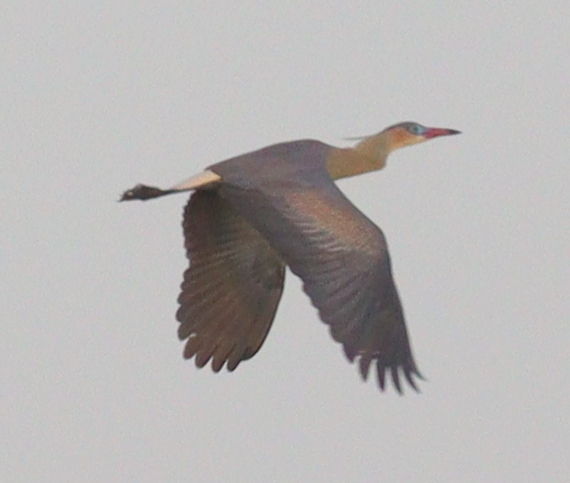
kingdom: Animalia
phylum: Chordata
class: Aves
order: Pelecaniformes
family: Ardeidae
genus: Syrigma
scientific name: Syrigma sibilatrix
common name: Whistling heron
